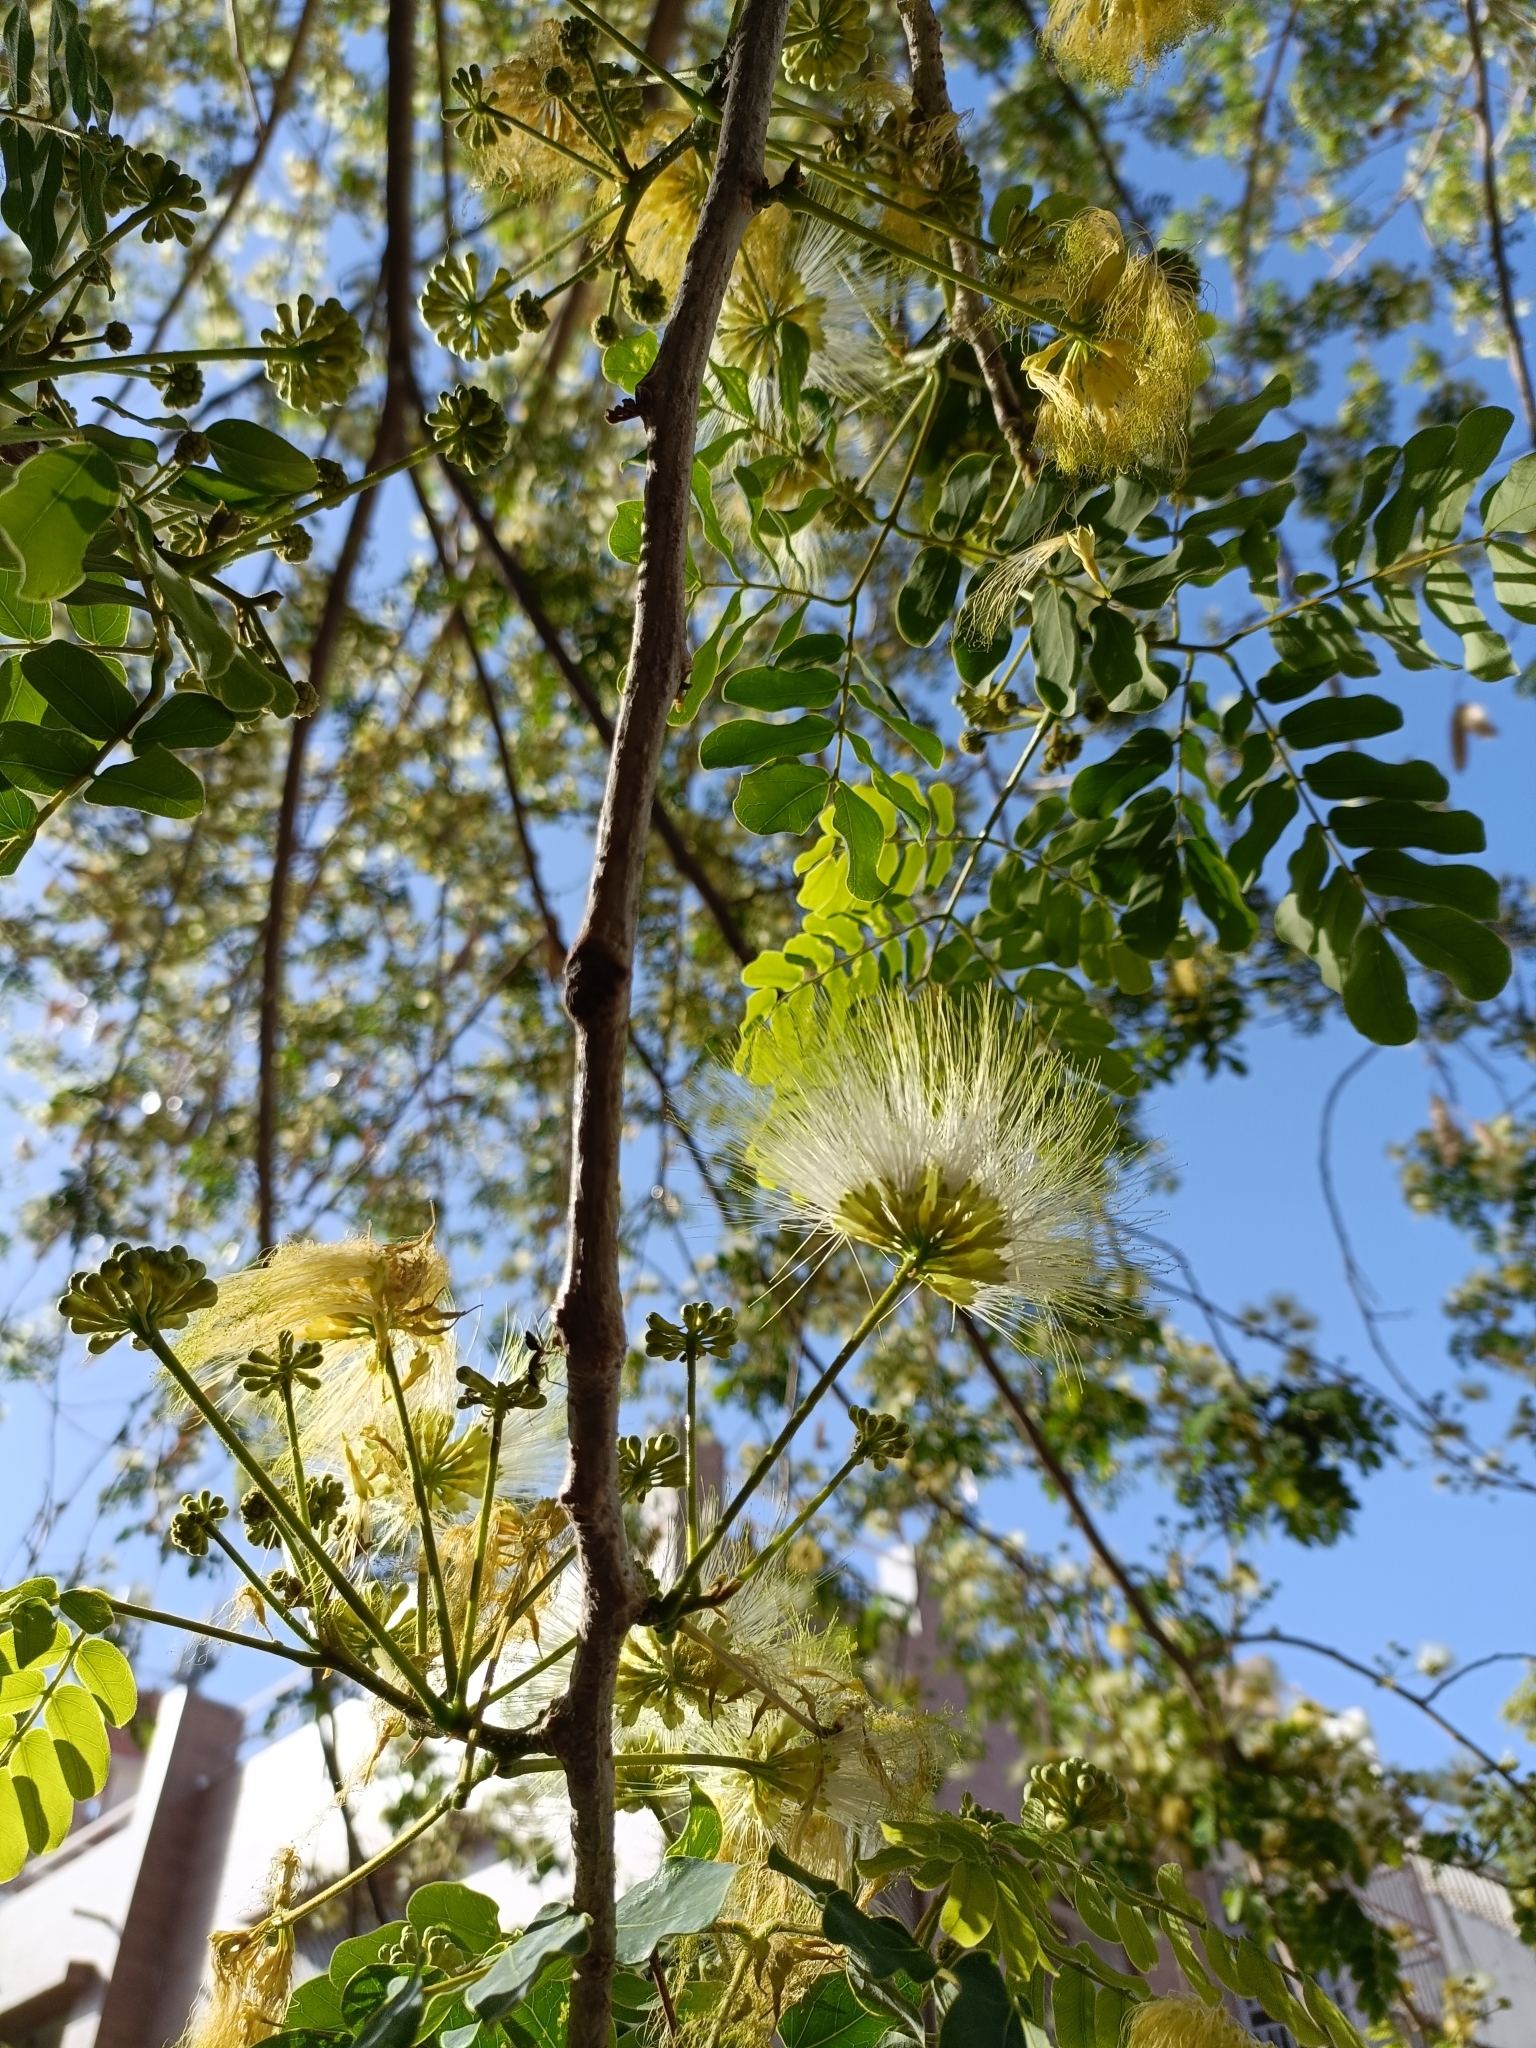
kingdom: Plantae
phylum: Tracheophyta
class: Magnoliopsida
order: Fabales
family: Fabaceae
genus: Albizia
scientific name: Albizia lebbeck
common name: Woman's tongue
